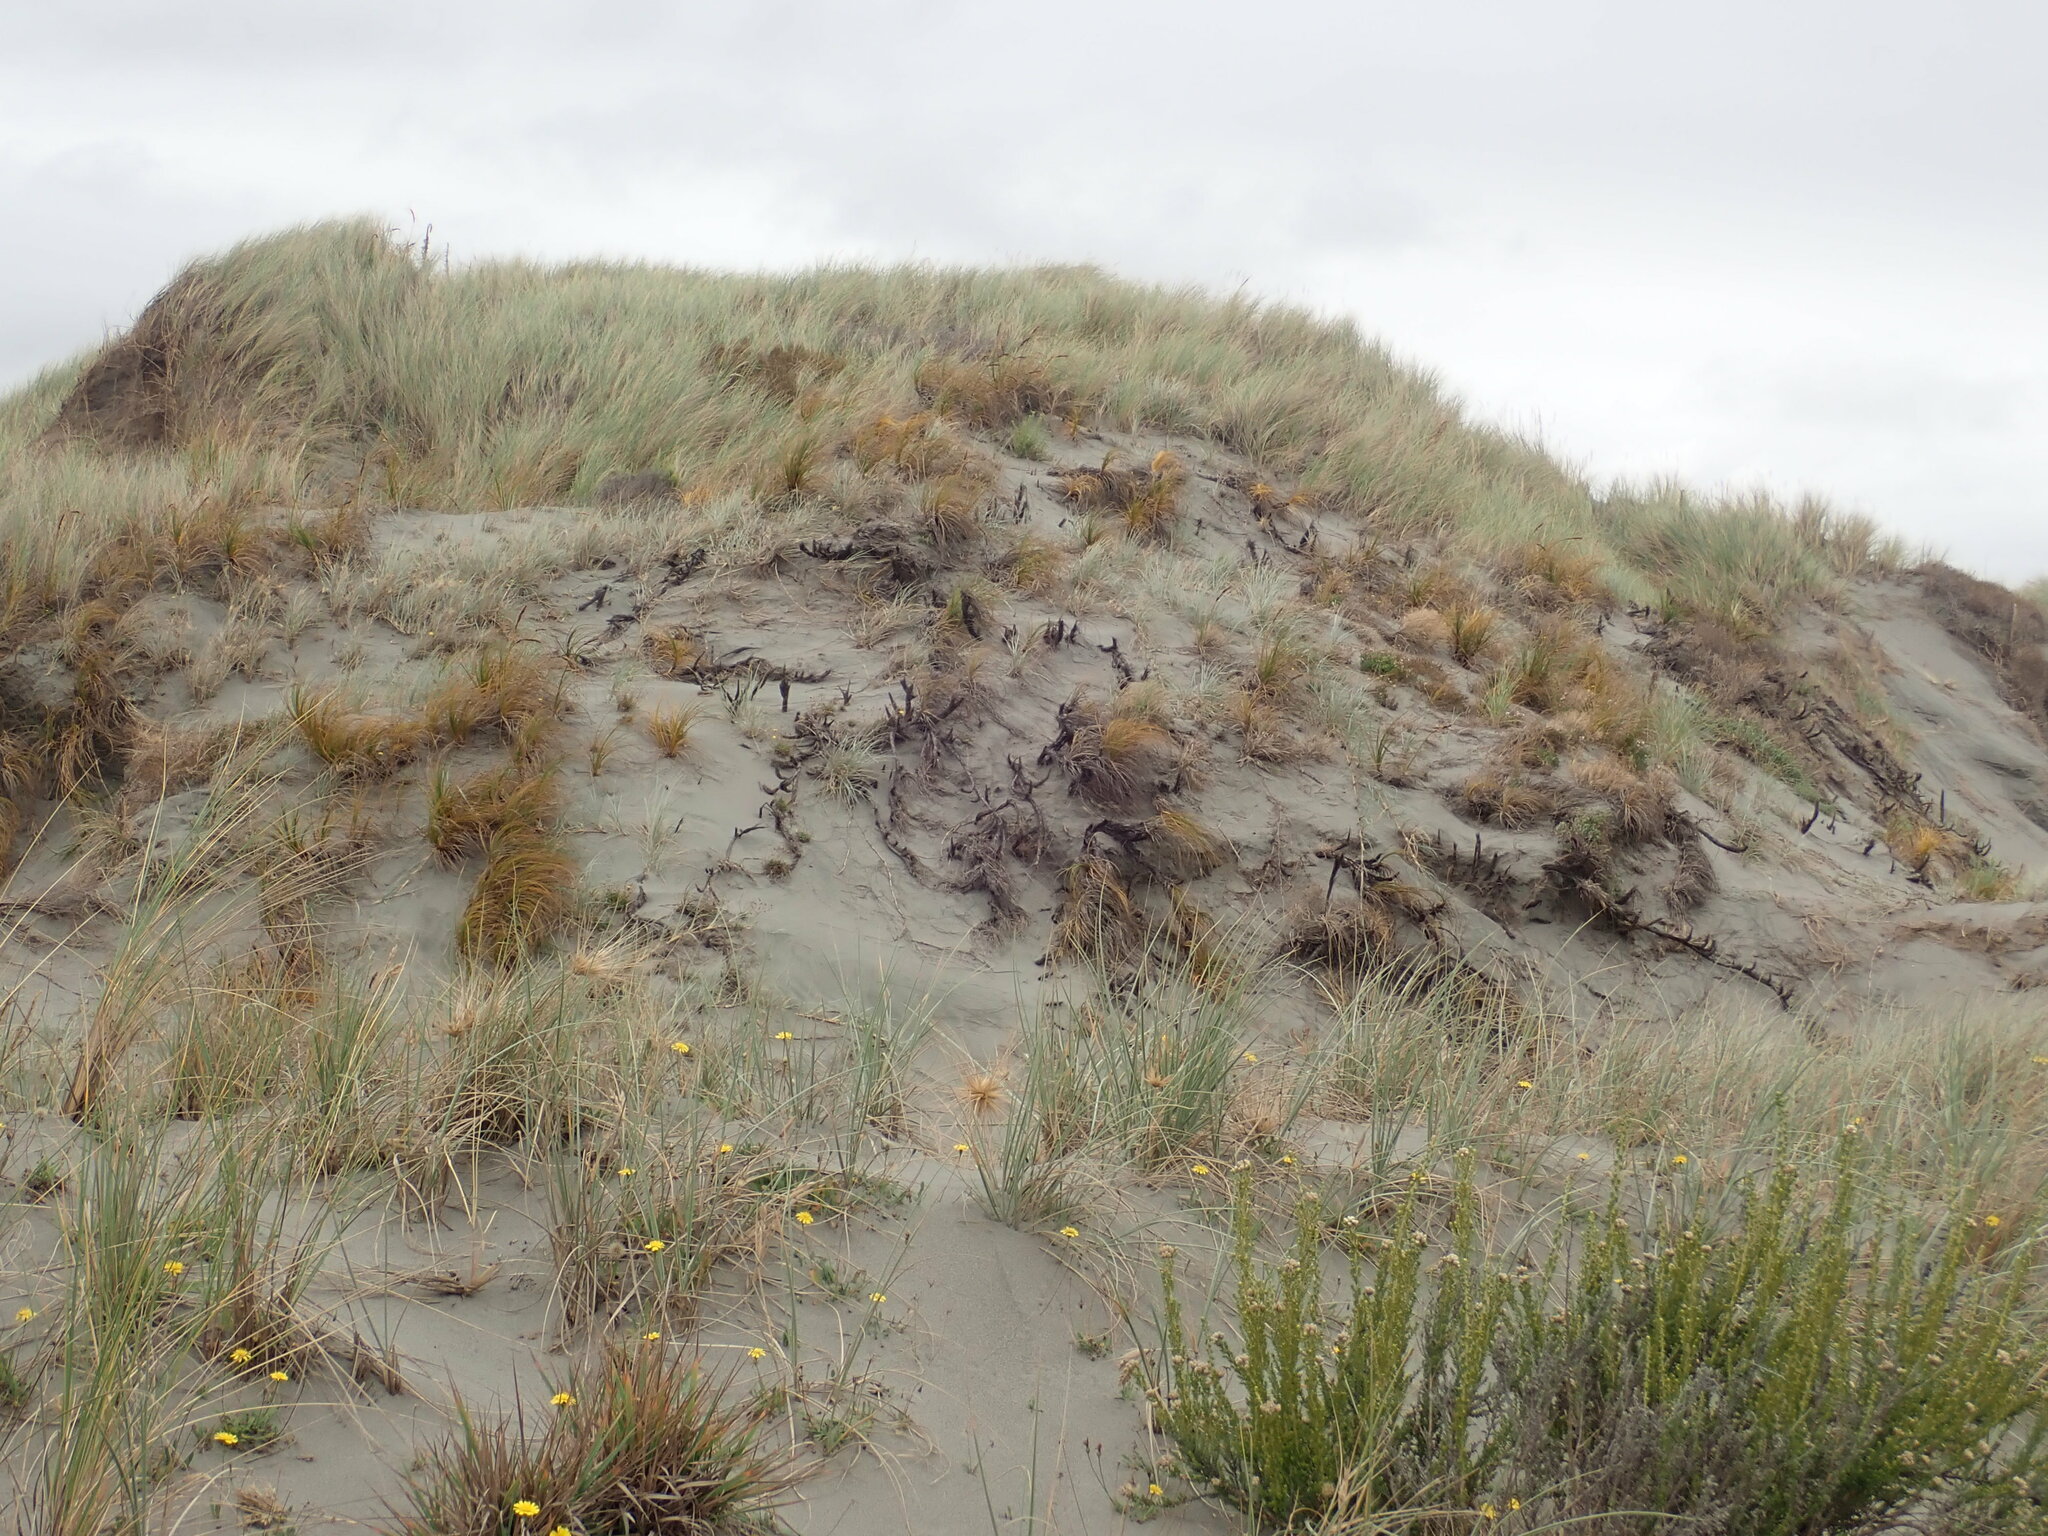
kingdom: Plantae
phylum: Tracheophyta
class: Liliopsida
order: Poales
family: Cyperaceae
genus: Ficinia
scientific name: Ficinia spiralis
